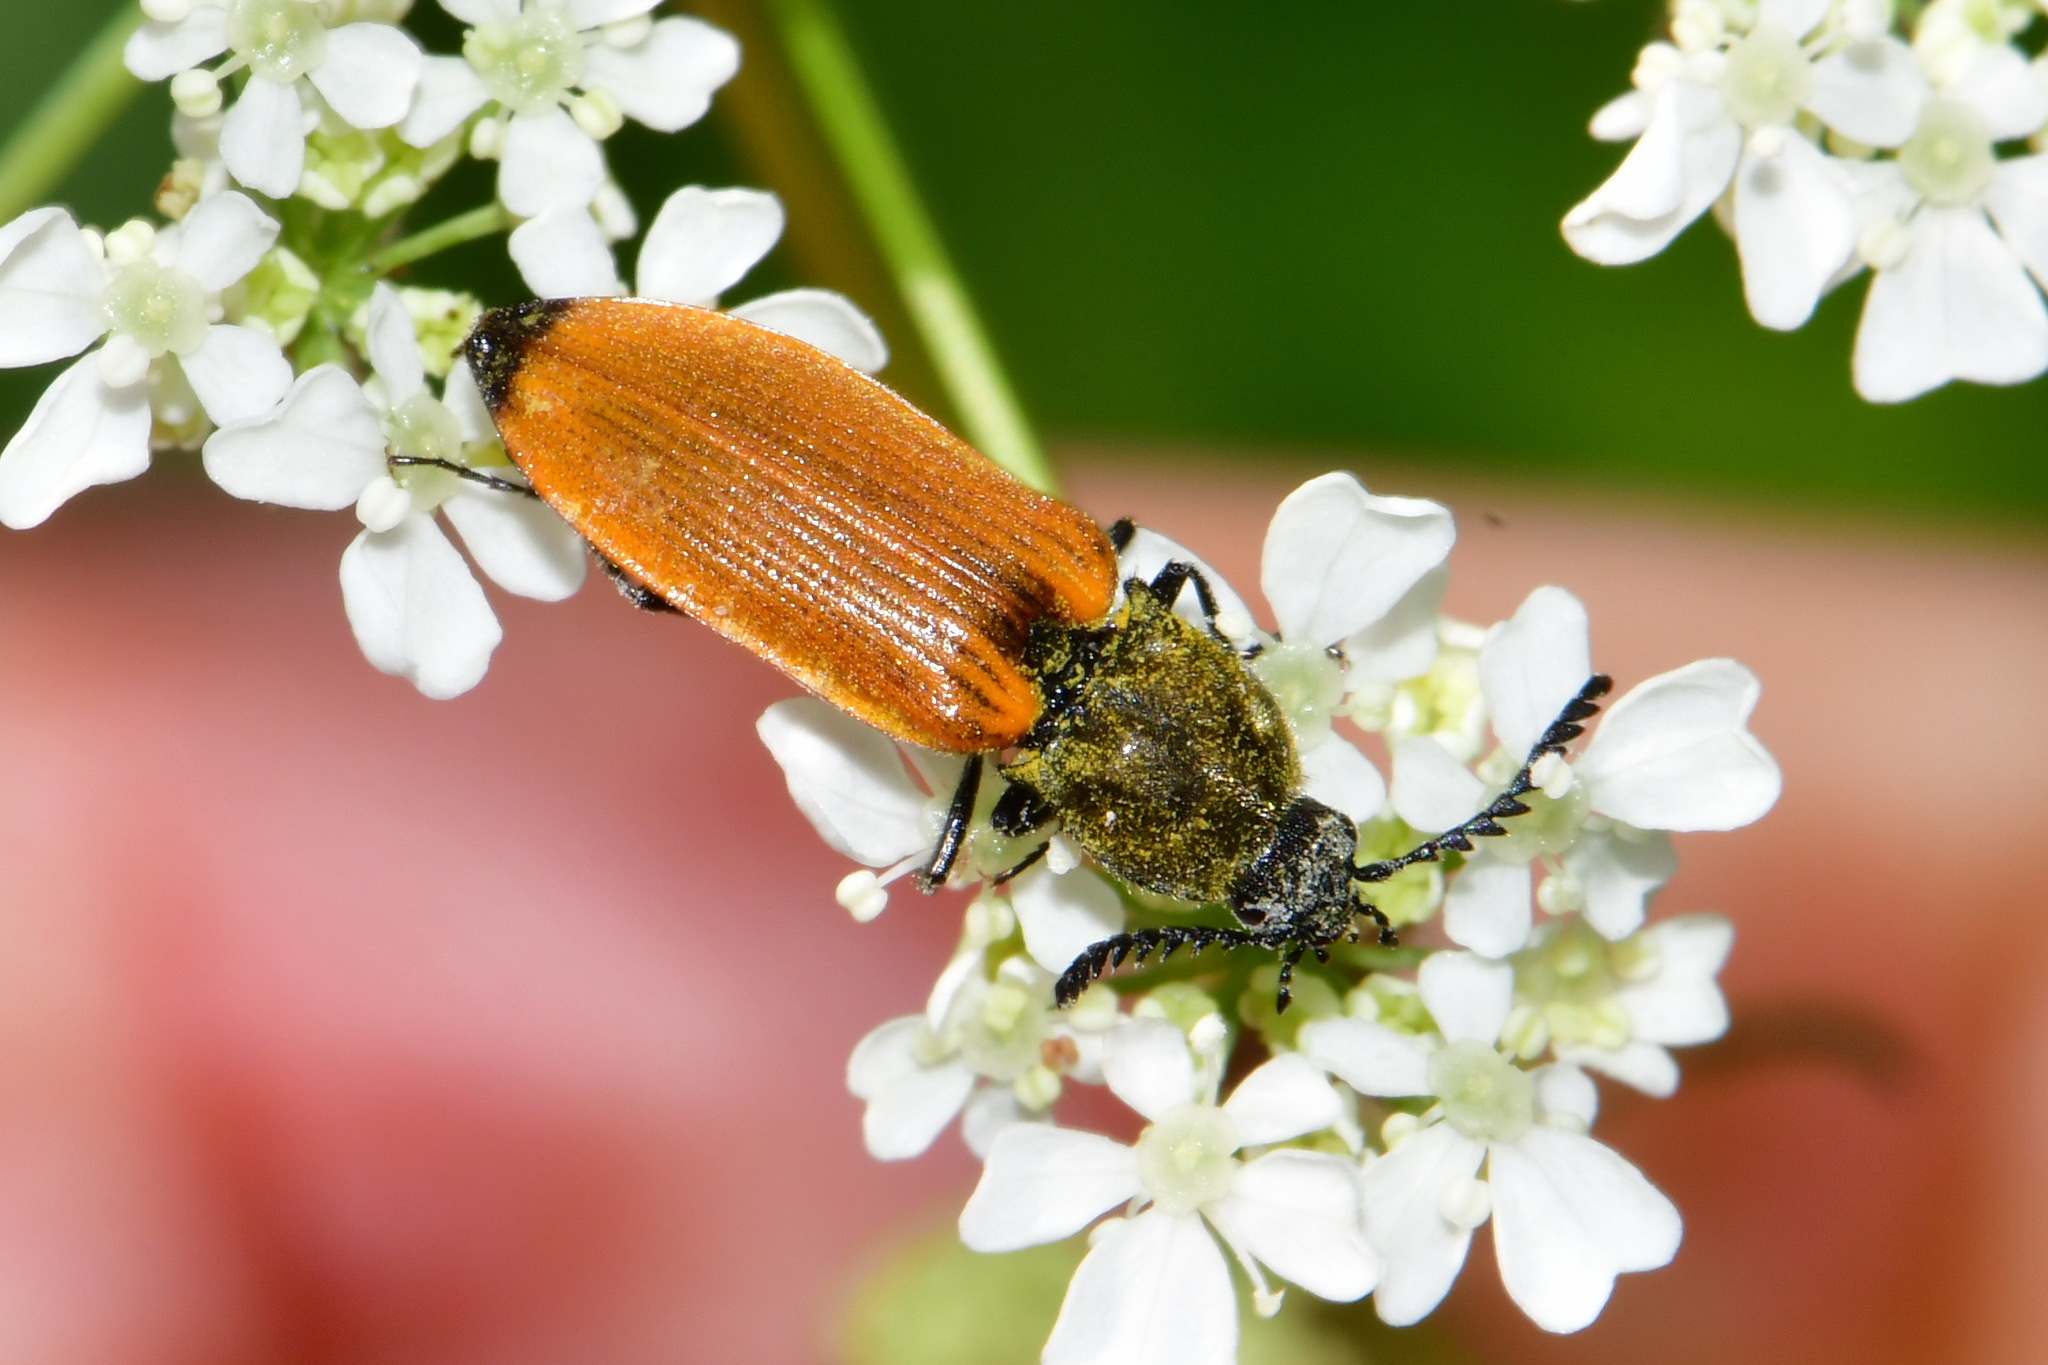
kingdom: Animalia
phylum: Arthropoda
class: Insecta
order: Coleoptera
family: Elateridae
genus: Anostirus
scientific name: Anostirus castaneus
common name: Chestnut coloured click beetle
